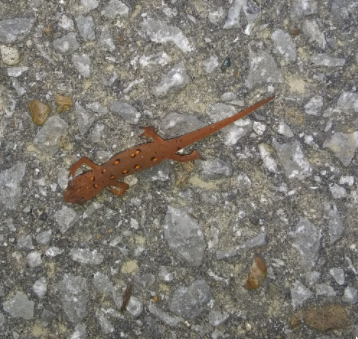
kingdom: Animalia
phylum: Chordata
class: Amphibia
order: Caudata
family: Salamandridae
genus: Notophthalmus
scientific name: Notophthalmus viridescens
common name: Eastern newt
